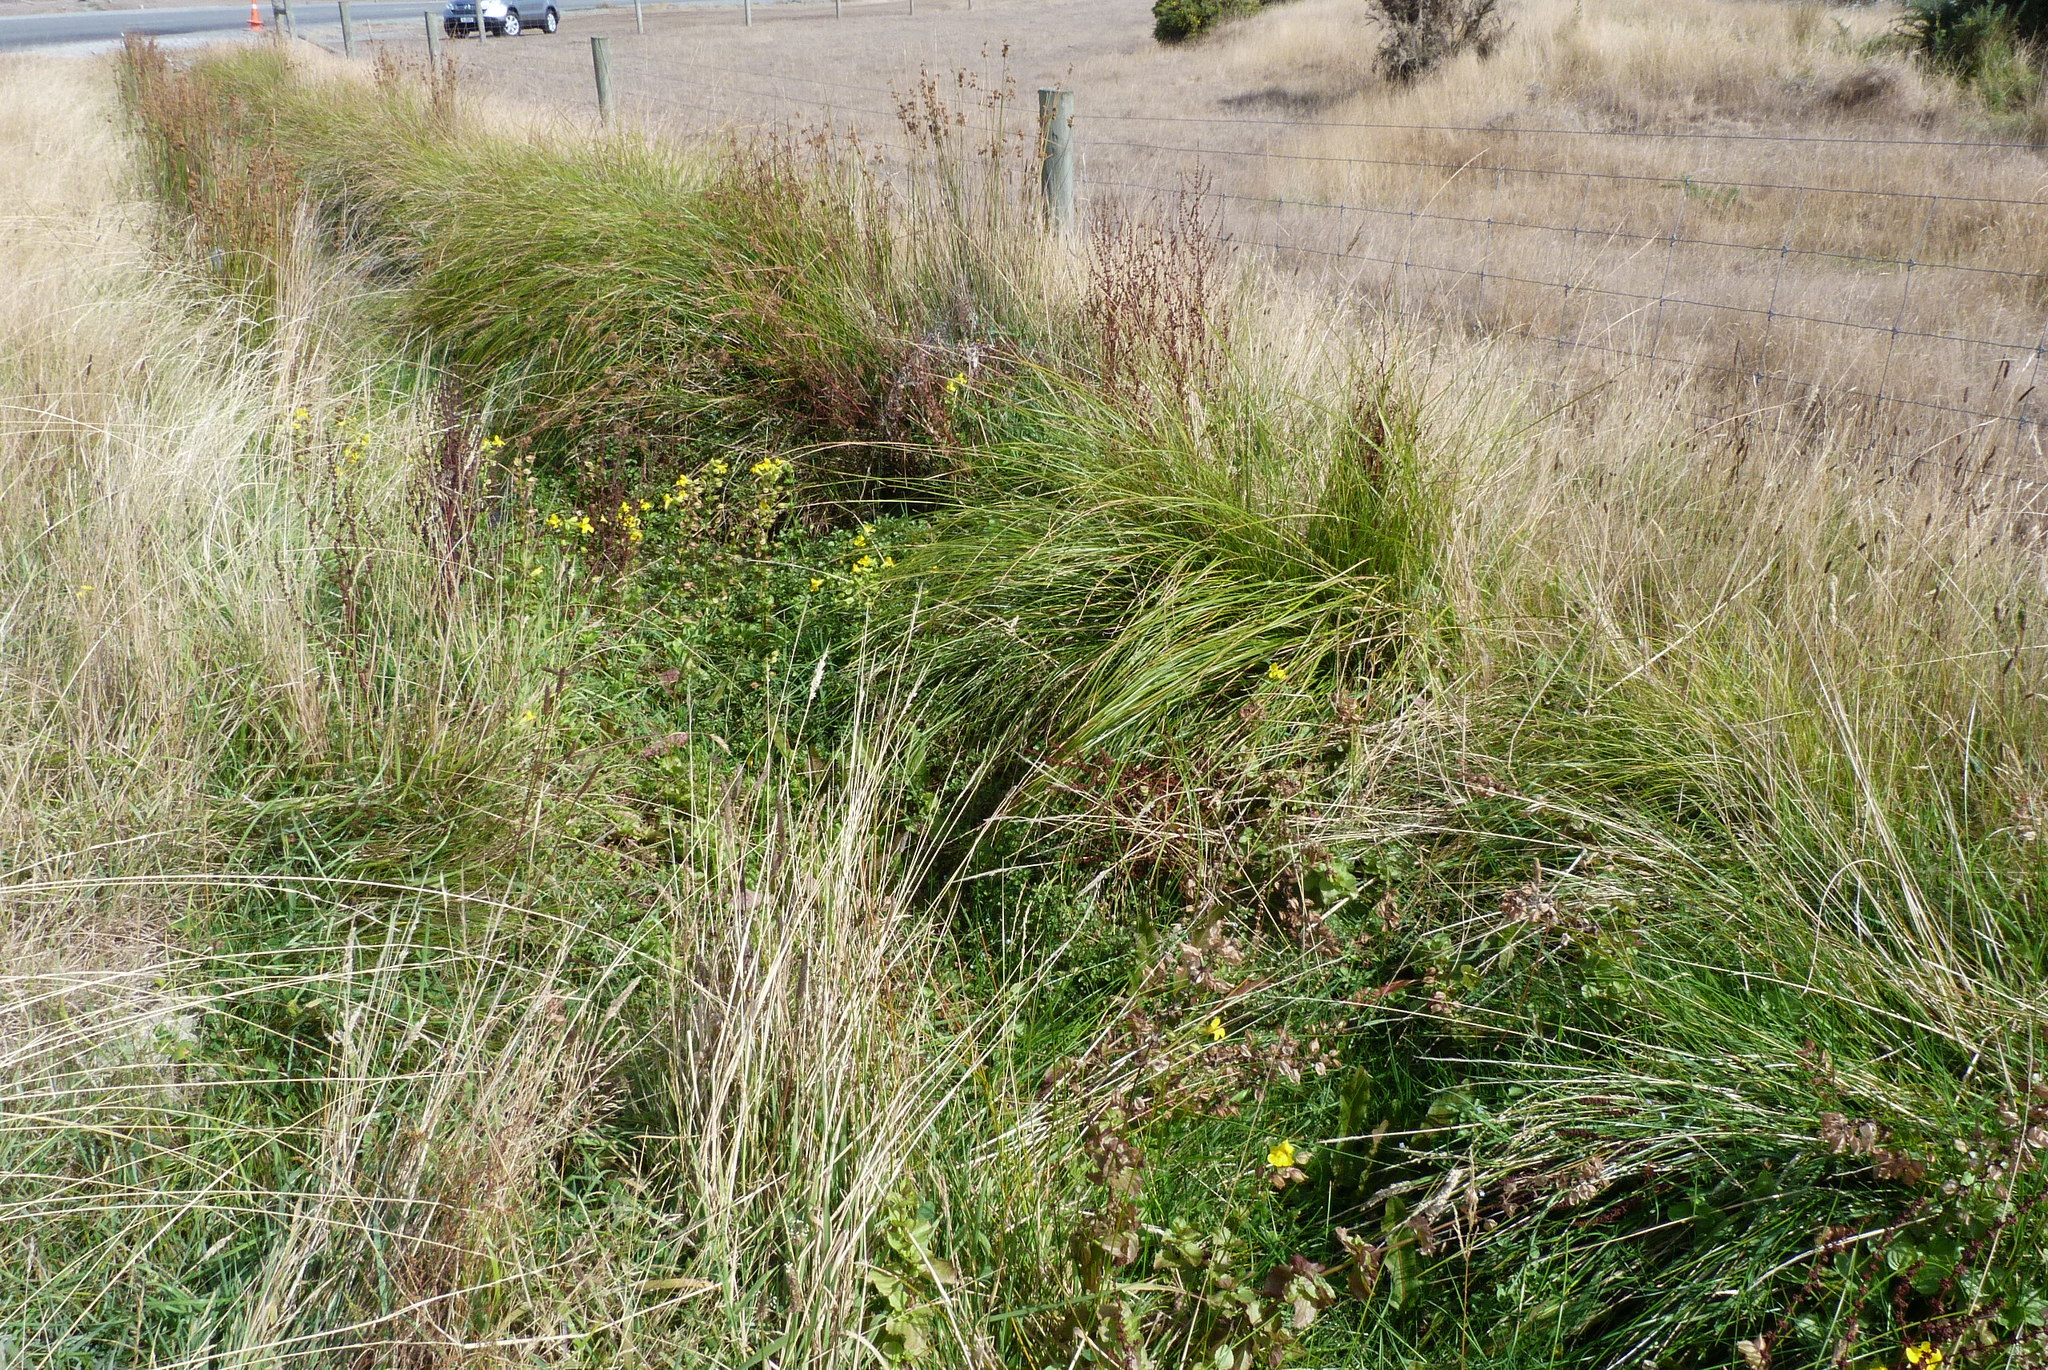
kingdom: Plantae
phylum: Tracheophyta
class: Liliopsida
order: Poales
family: Cyperaceae
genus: Carex
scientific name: Carex virgata
